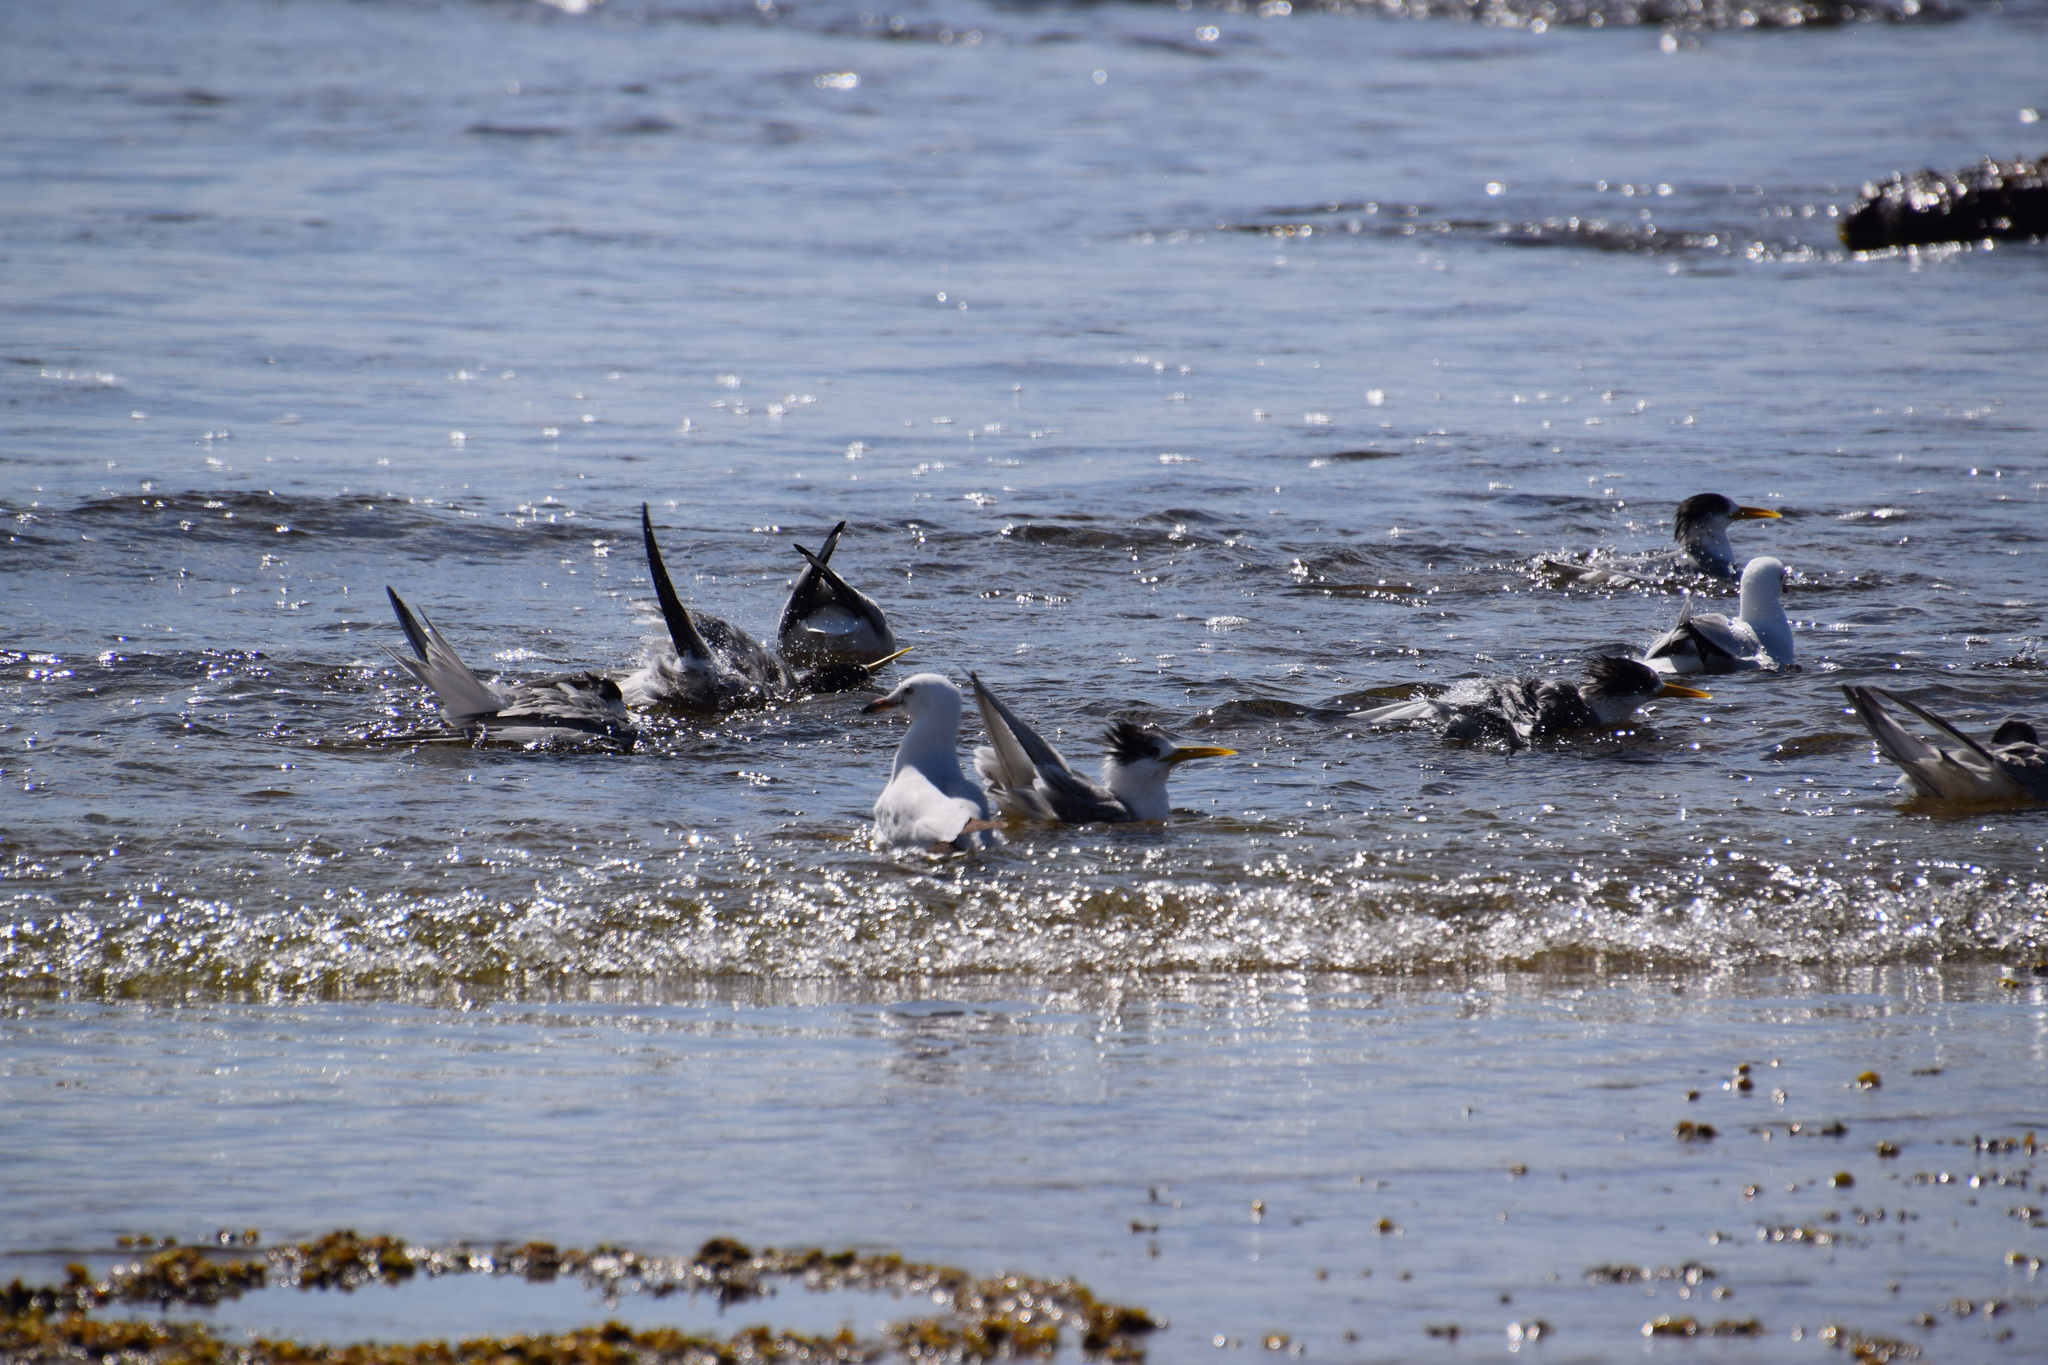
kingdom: Animalia
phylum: Chordata
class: Aves
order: Charadriiformes
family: Laridae
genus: Thalasseus
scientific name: Thalasseus bergii
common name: Greater crested tern
